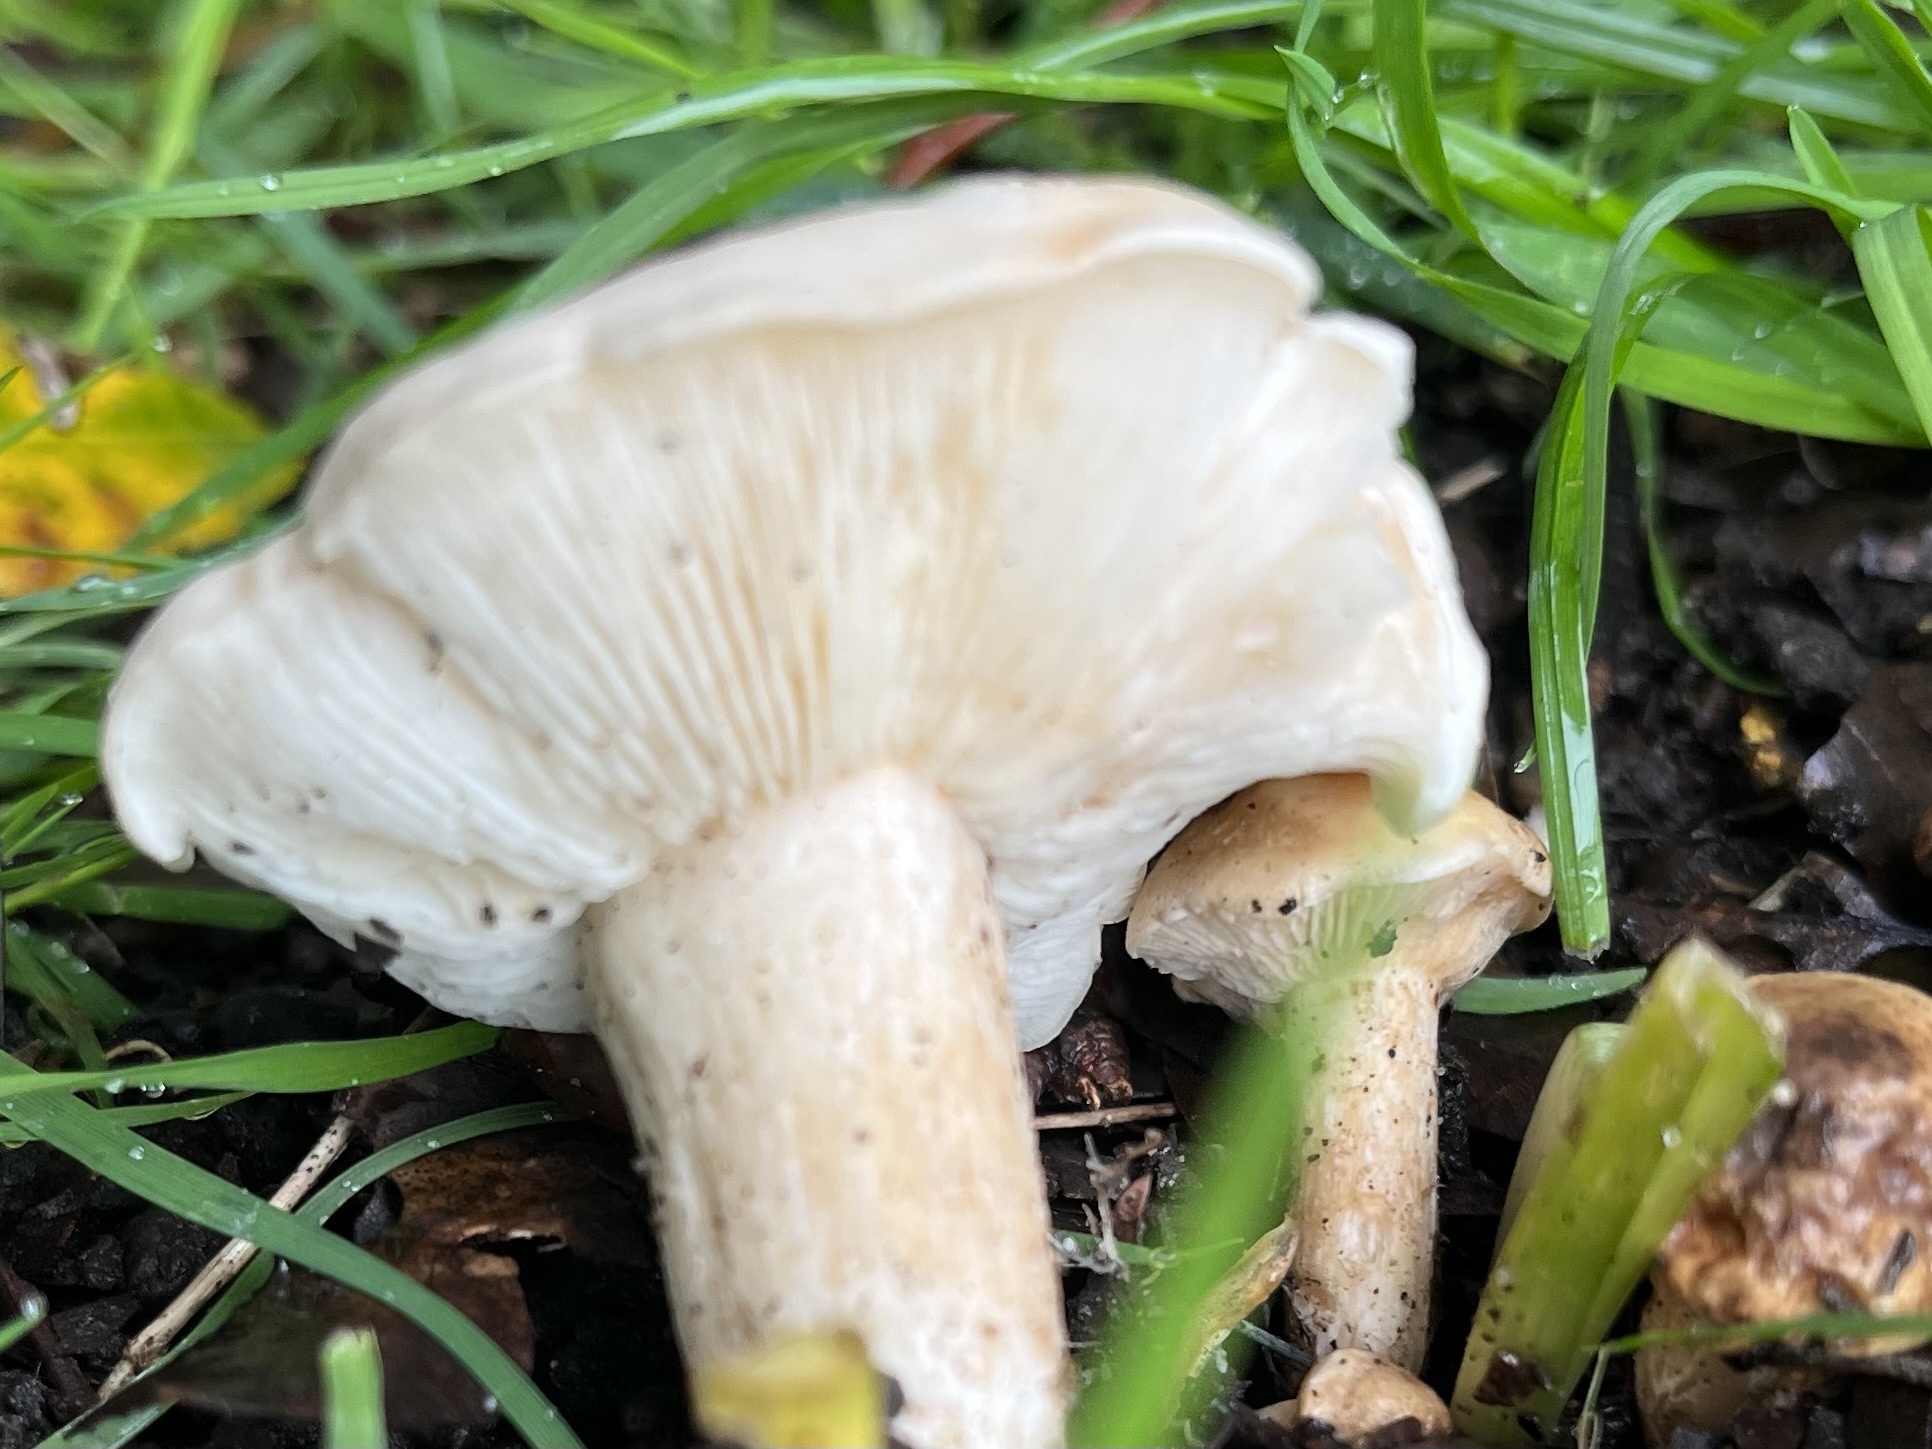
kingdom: Fungi
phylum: Basidiomycota
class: Agaricomycetes
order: Agaricales
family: Lyophyllaceae
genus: Calocybe
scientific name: Calocybe gambosa
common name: St. george's mushroom
